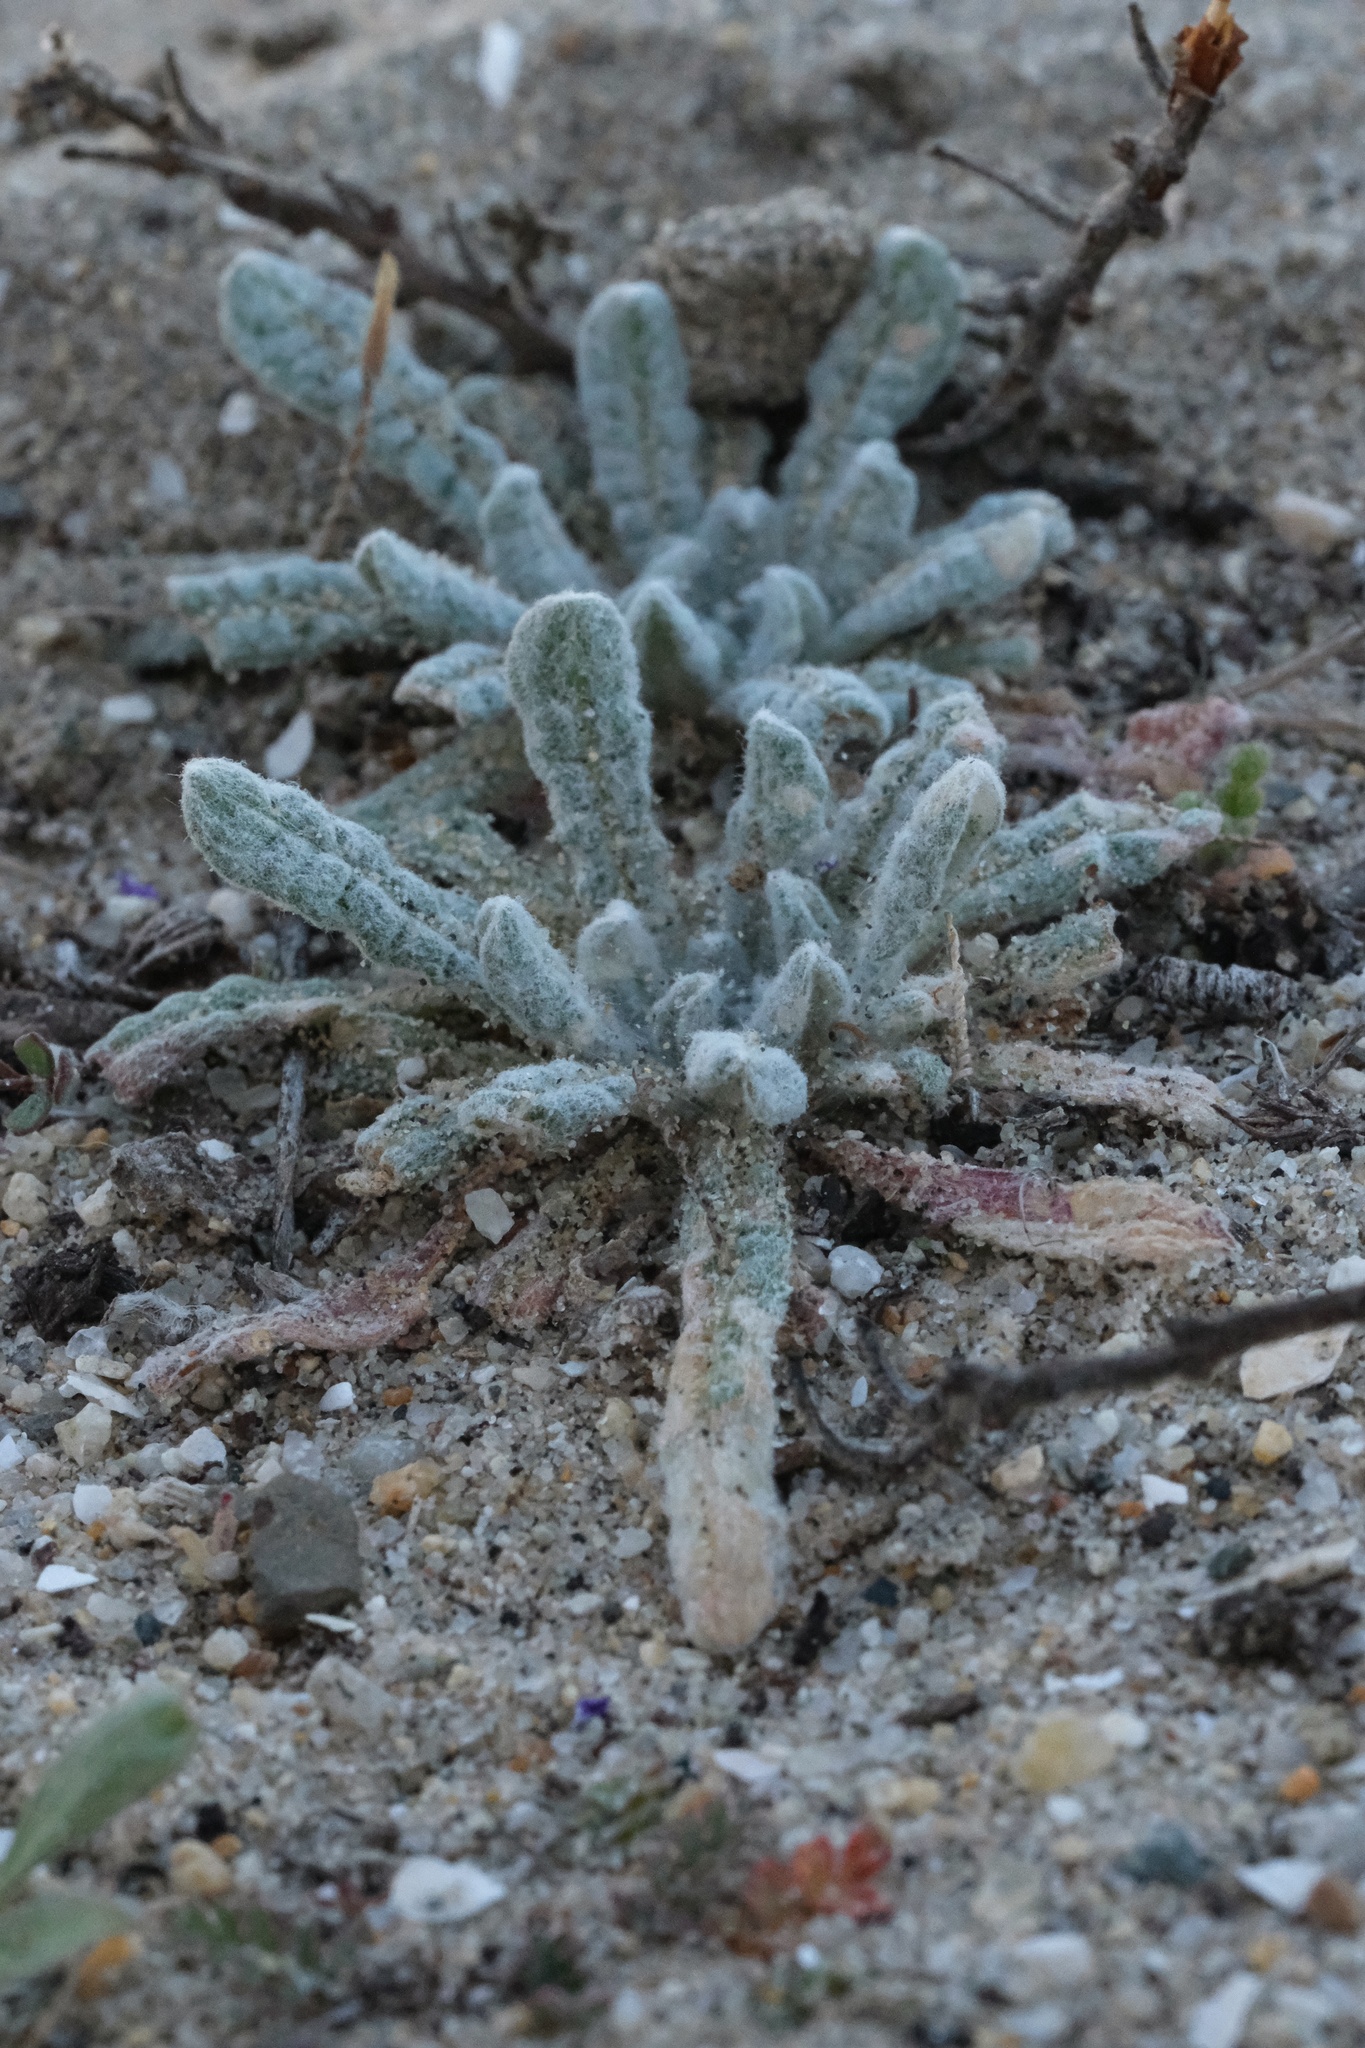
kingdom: Plantae
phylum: Tracheophyta
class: Magnoliopsida
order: Caryophyllales
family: Polygonaceae
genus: Nemacaulis
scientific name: Nemacaulis denudata
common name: Woolly-heads
